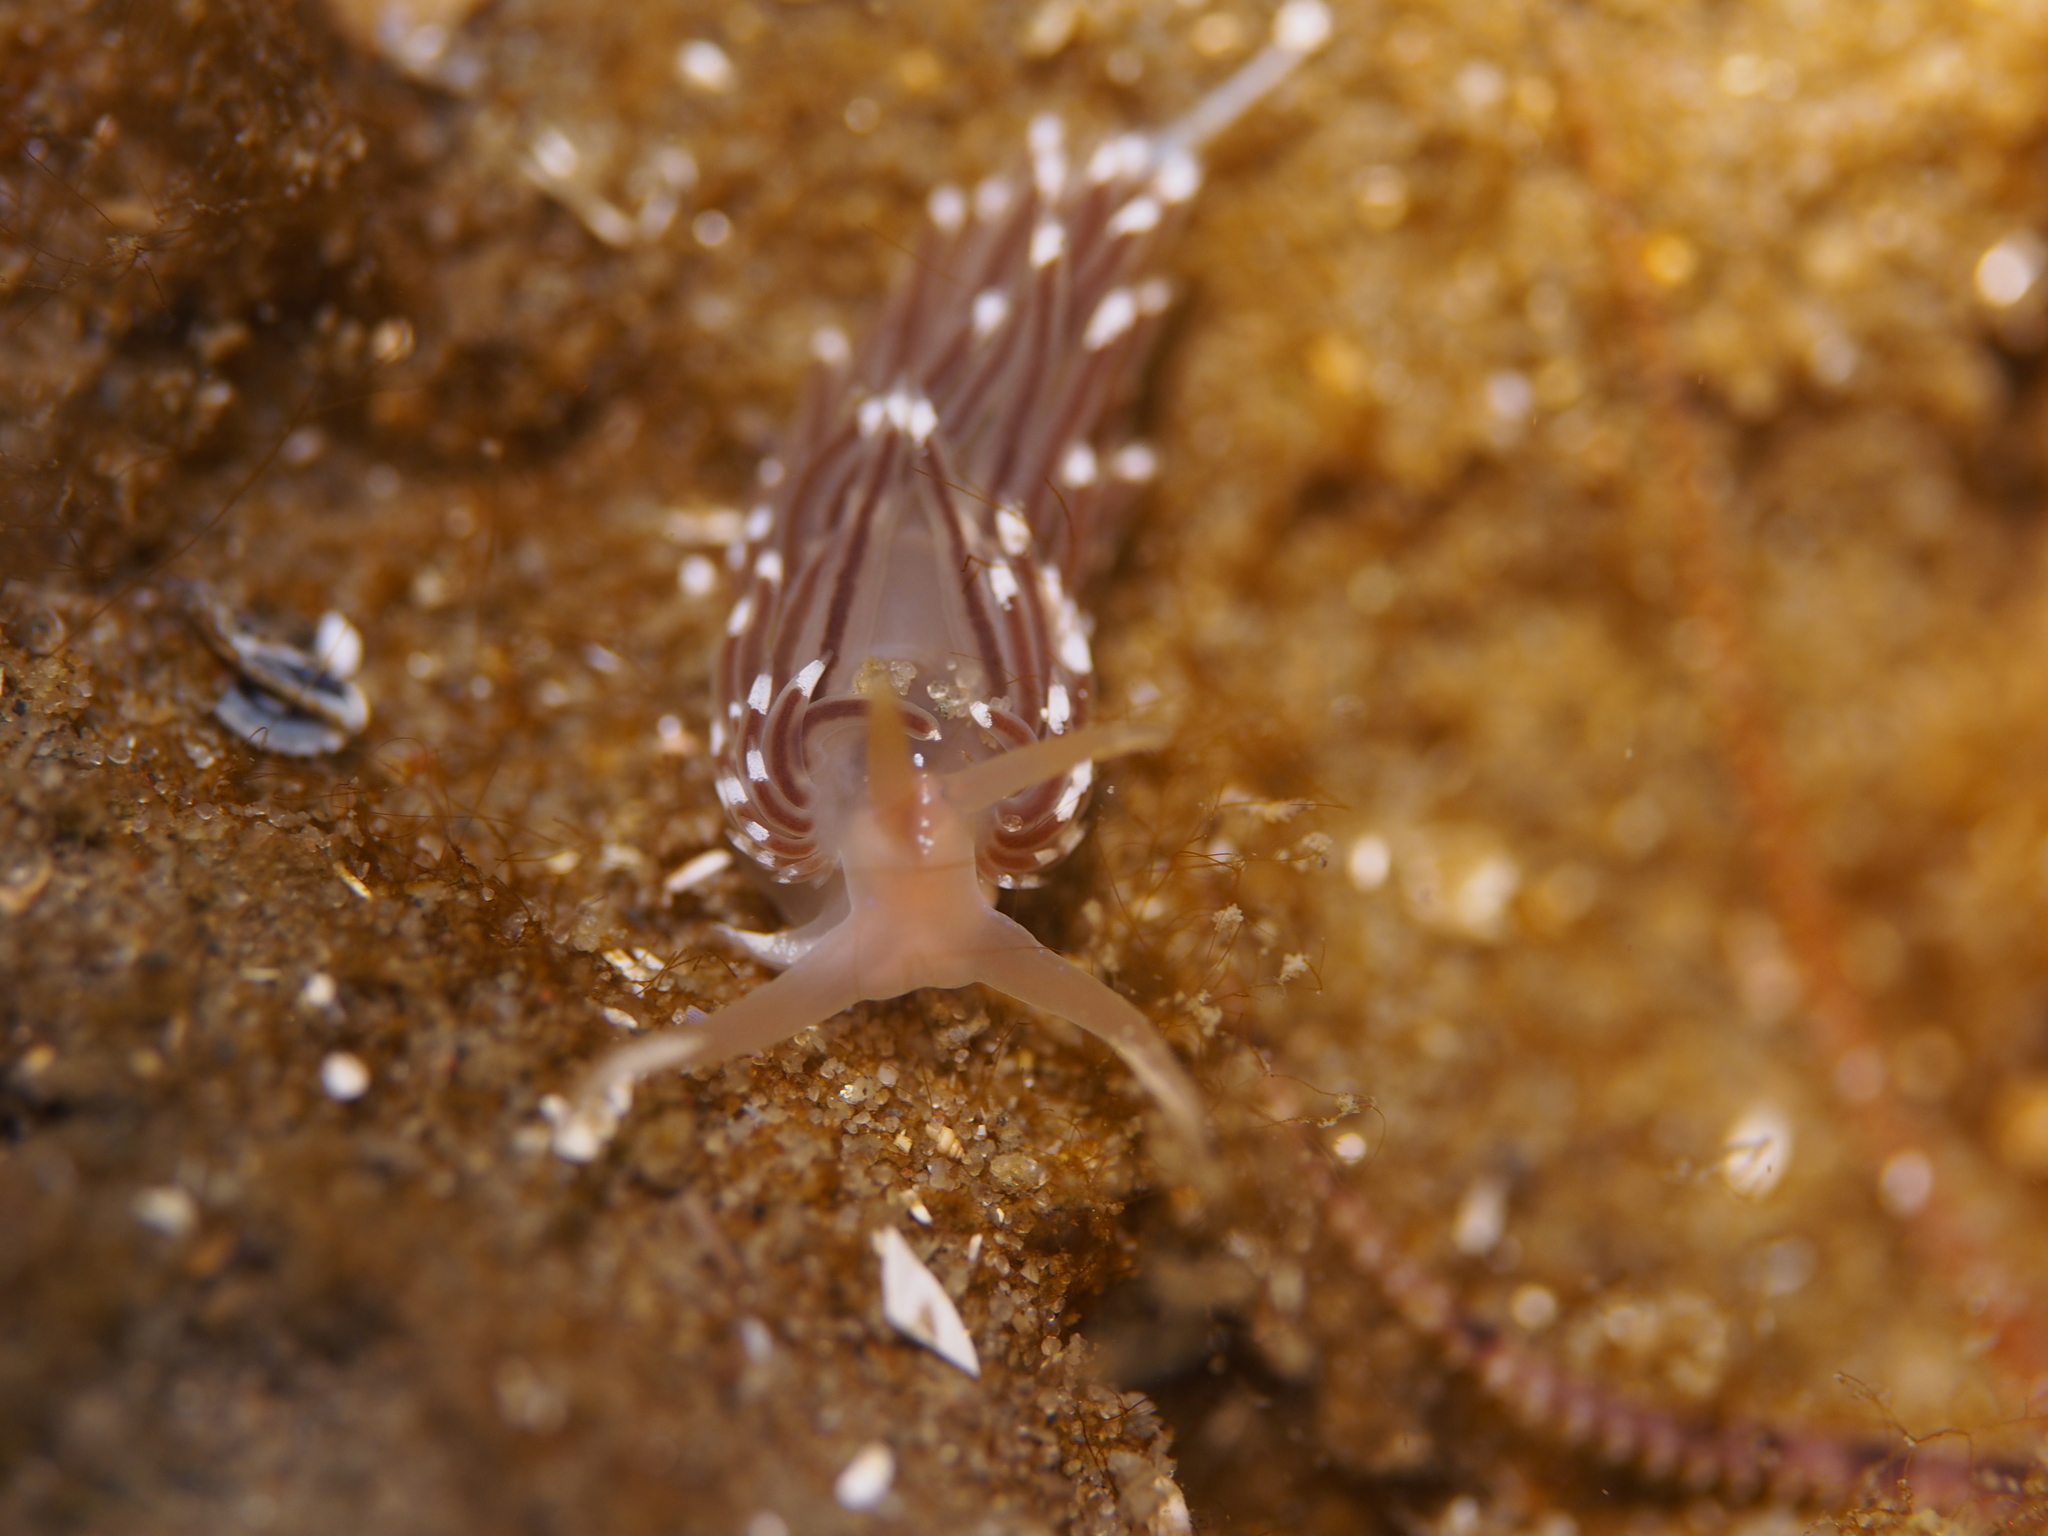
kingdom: Animalia
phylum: Mollusca
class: Gastropoda
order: Nudibranchia
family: Facelinidae
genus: Facelina
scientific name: Facelina bostoniensis
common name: Boston facelina
